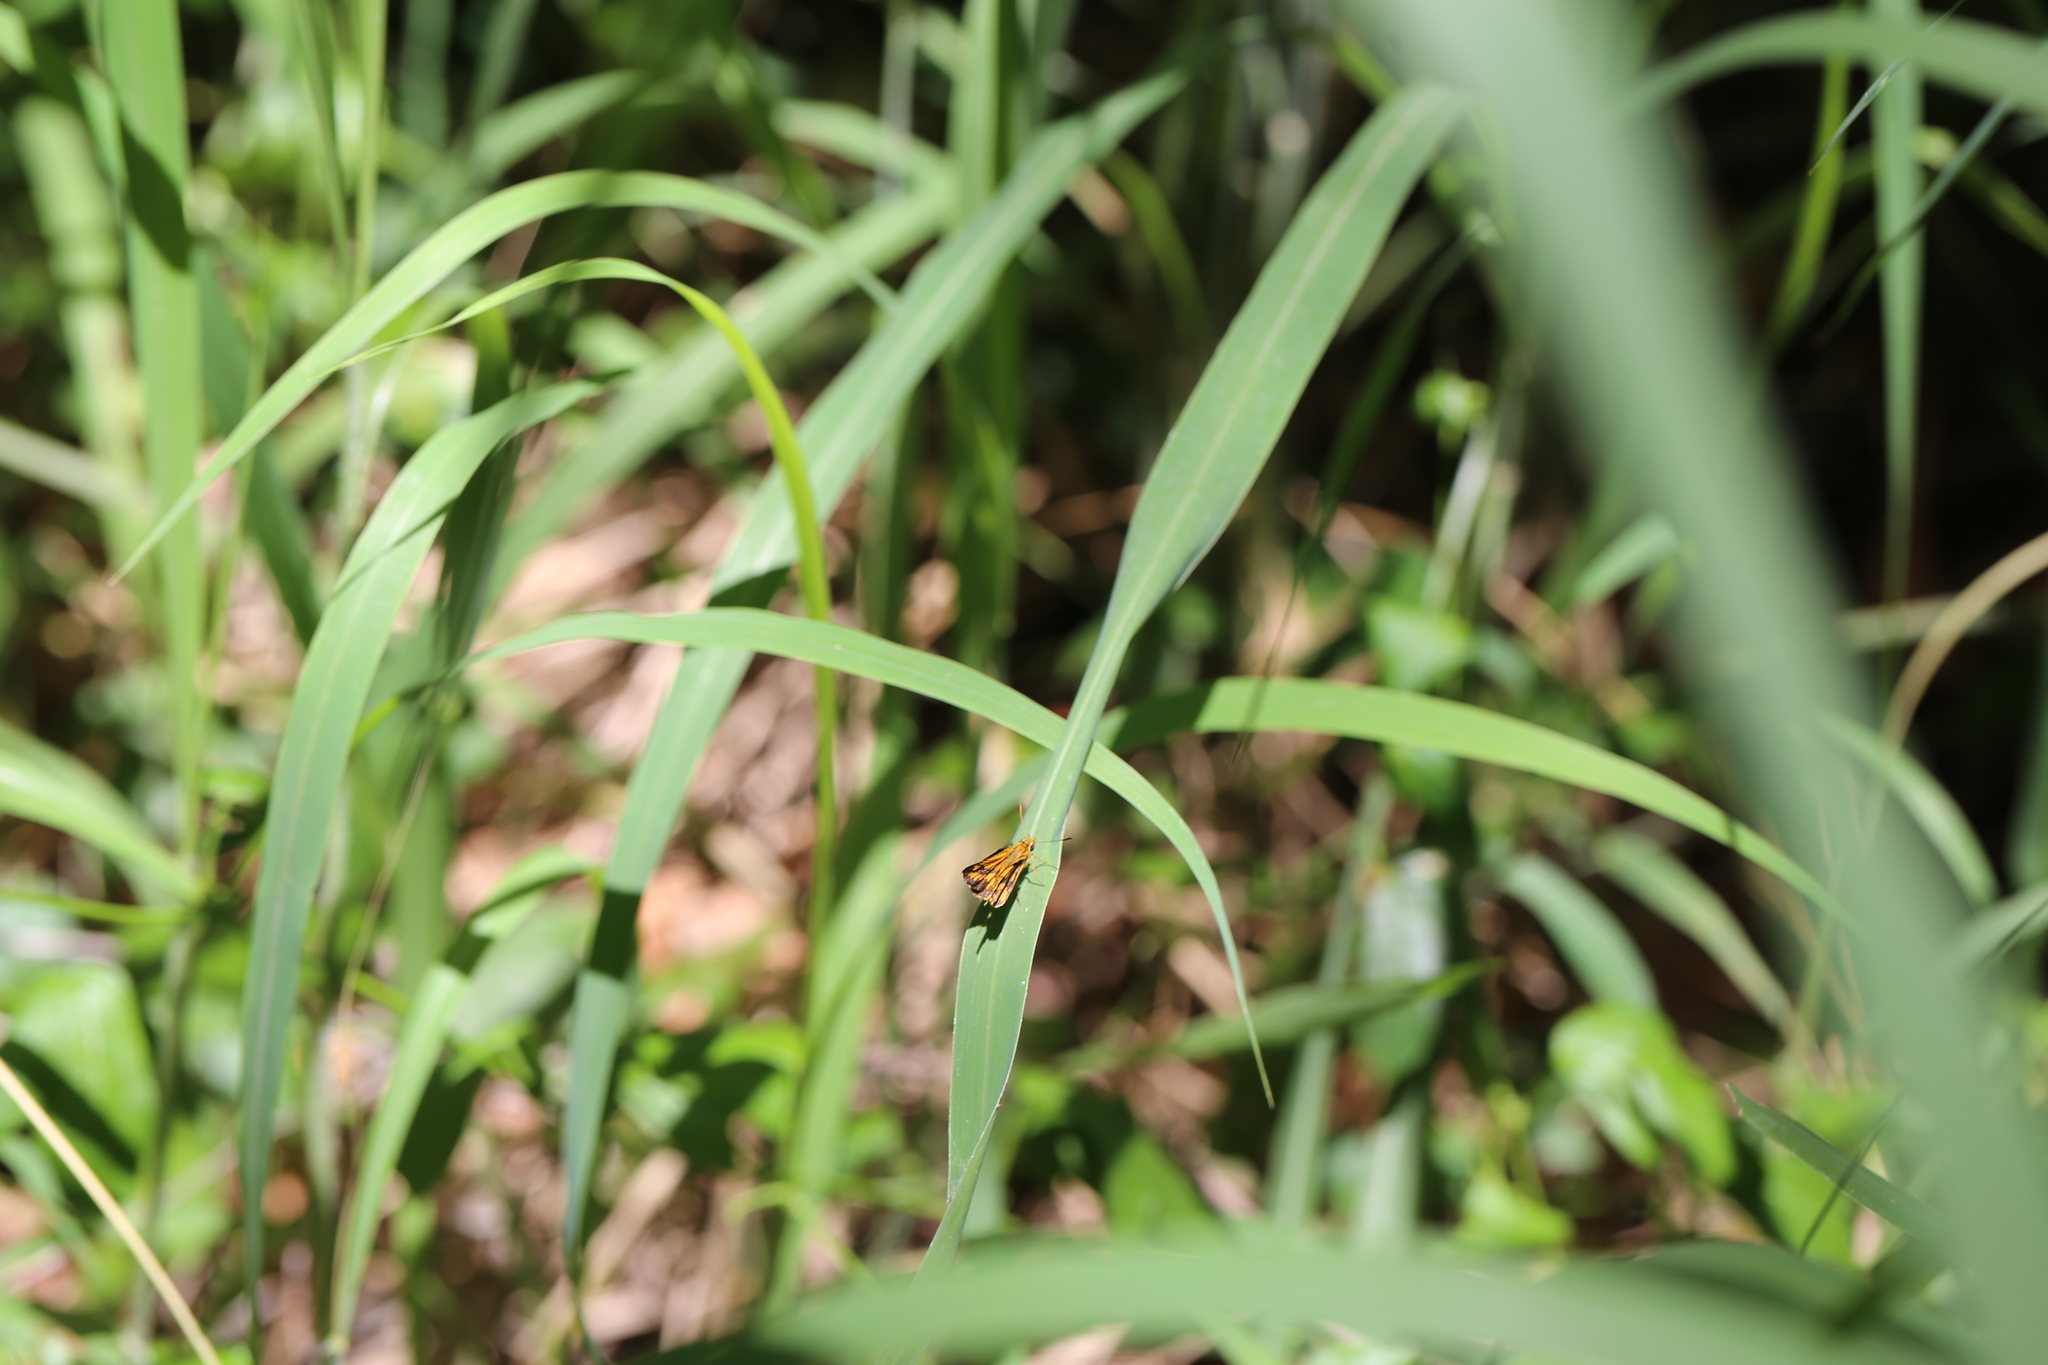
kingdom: Animalia
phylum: Arthropoda
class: Insecta
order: Lepidoptera
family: Hesperiidae
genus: Suniana
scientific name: Suniana sunias
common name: Wide-brand grass-dart
